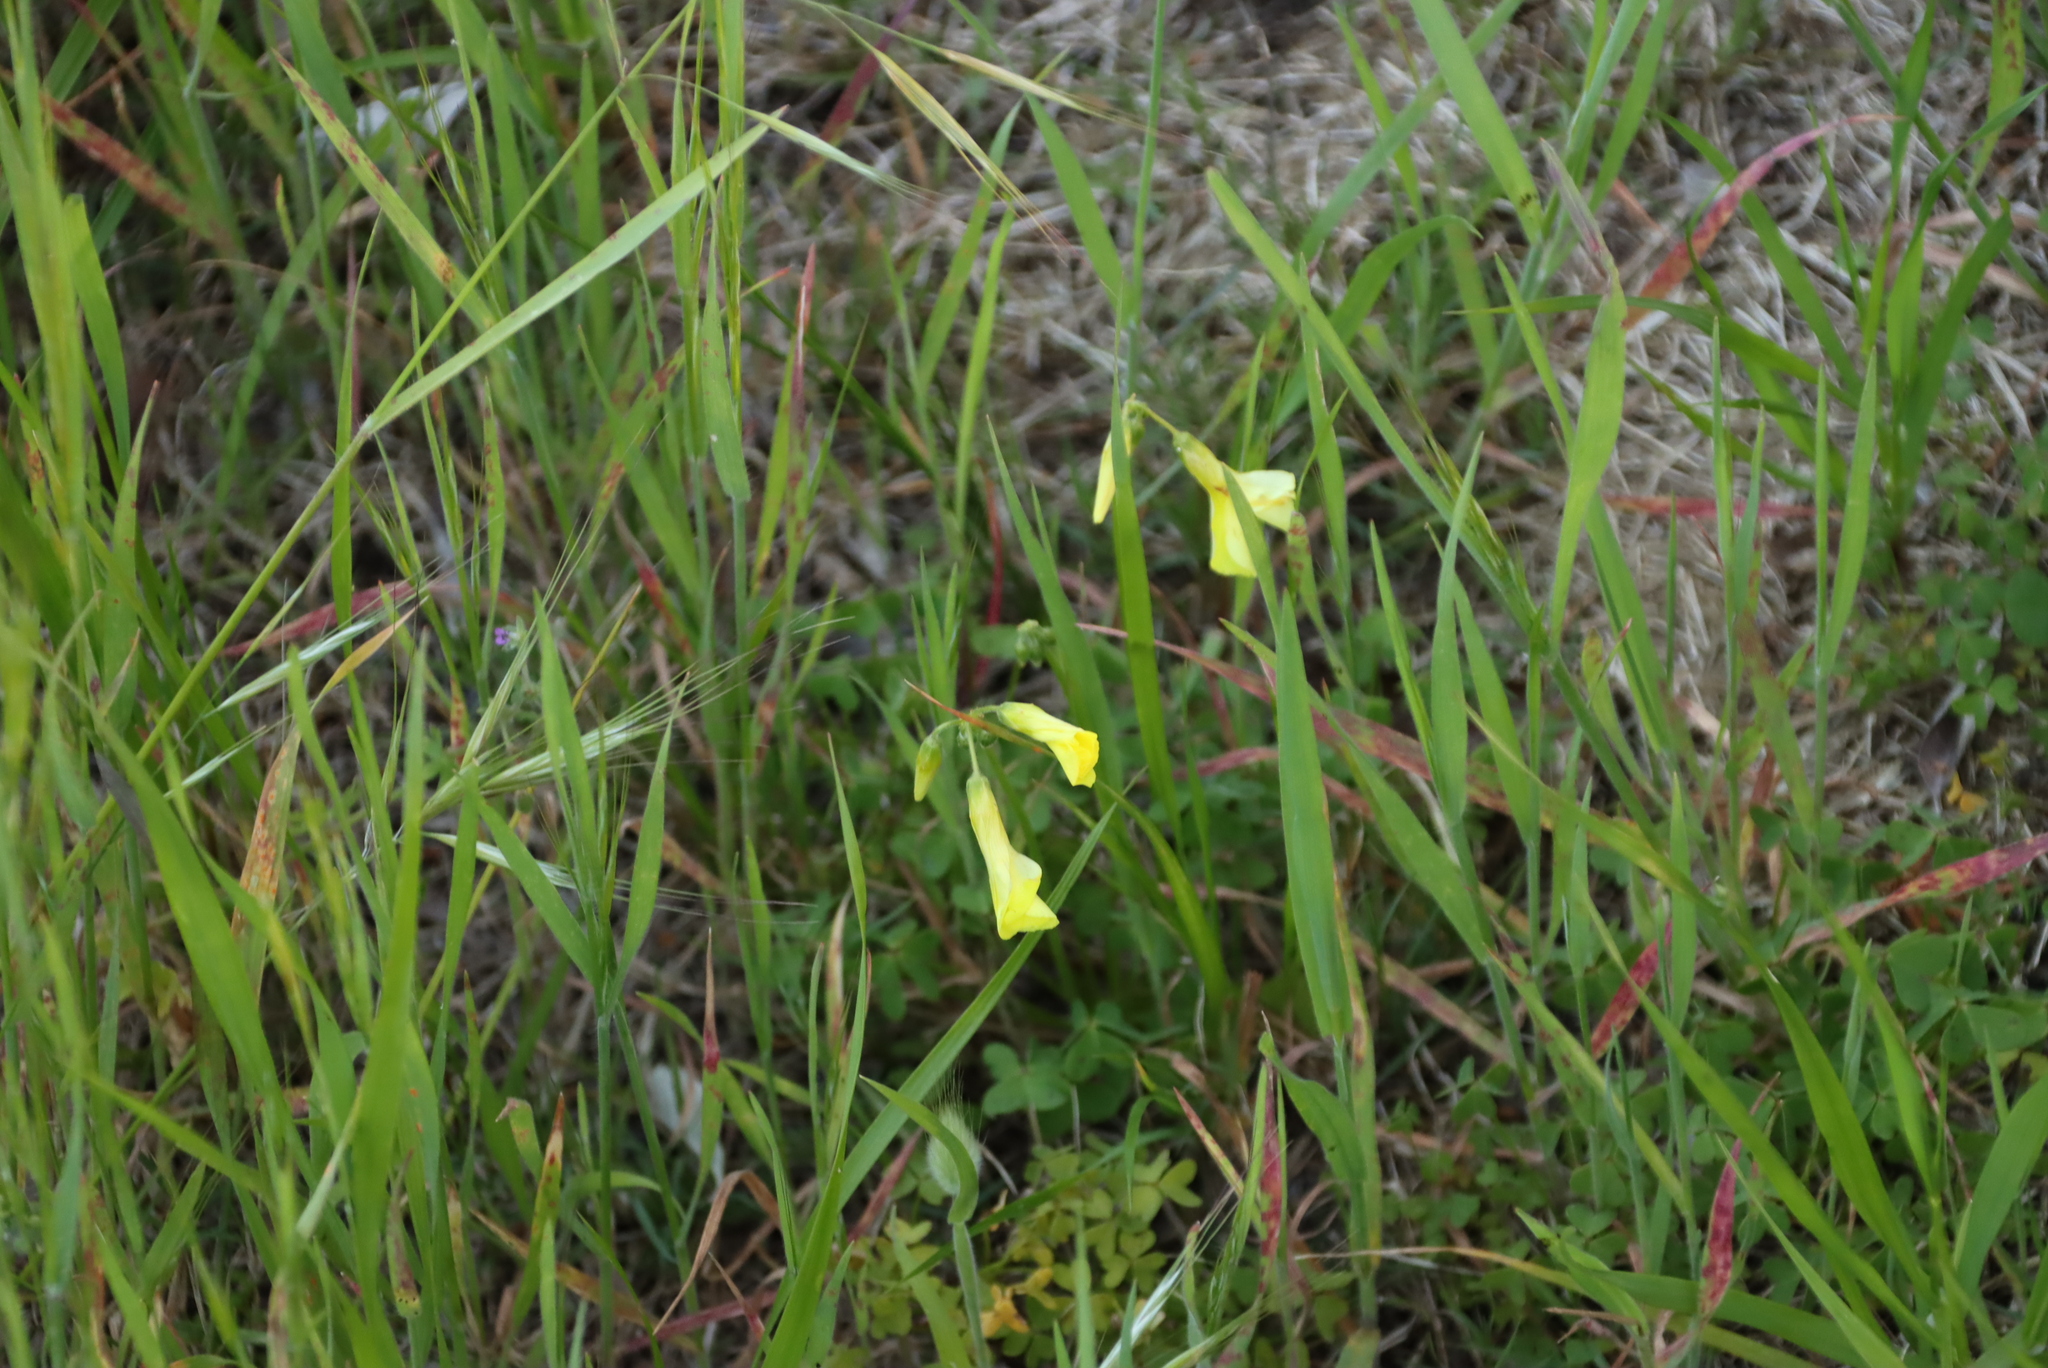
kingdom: Plantae
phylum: Tracheophyta
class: Magnoliopsida
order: Oxalidales
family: Oxalidaceae
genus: Oxalis
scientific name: Oxalis pes-caprae
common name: Bermuda-buttercup
